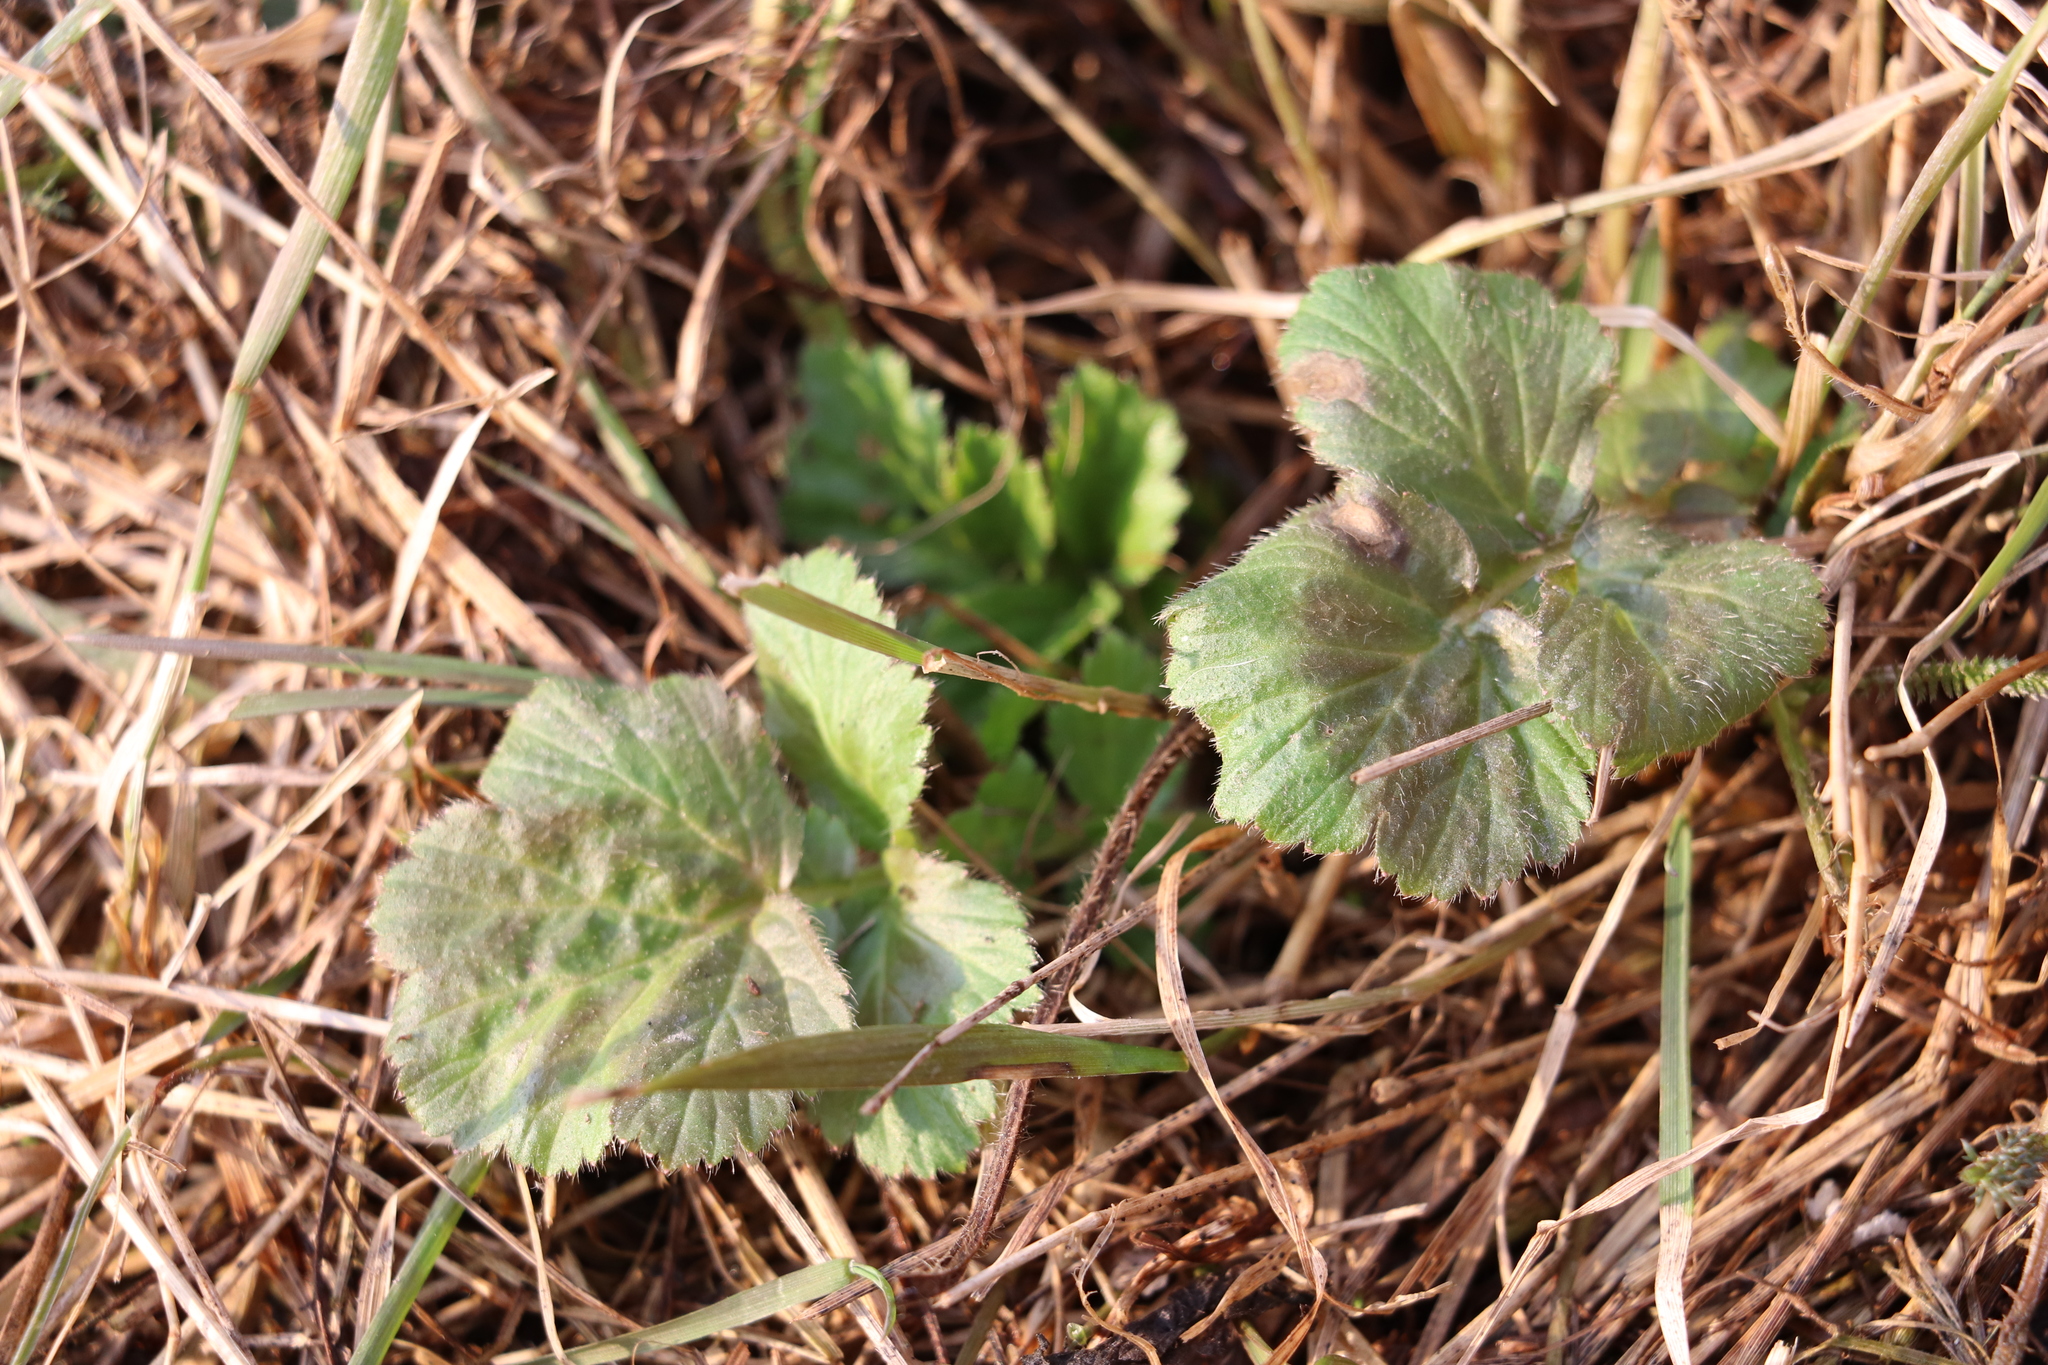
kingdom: Plantae
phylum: Tracheophyta
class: Magnoliopsida
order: Rosales
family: Rosaceae
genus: Geum
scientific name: Geum aleppicum
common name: Yellow avens
